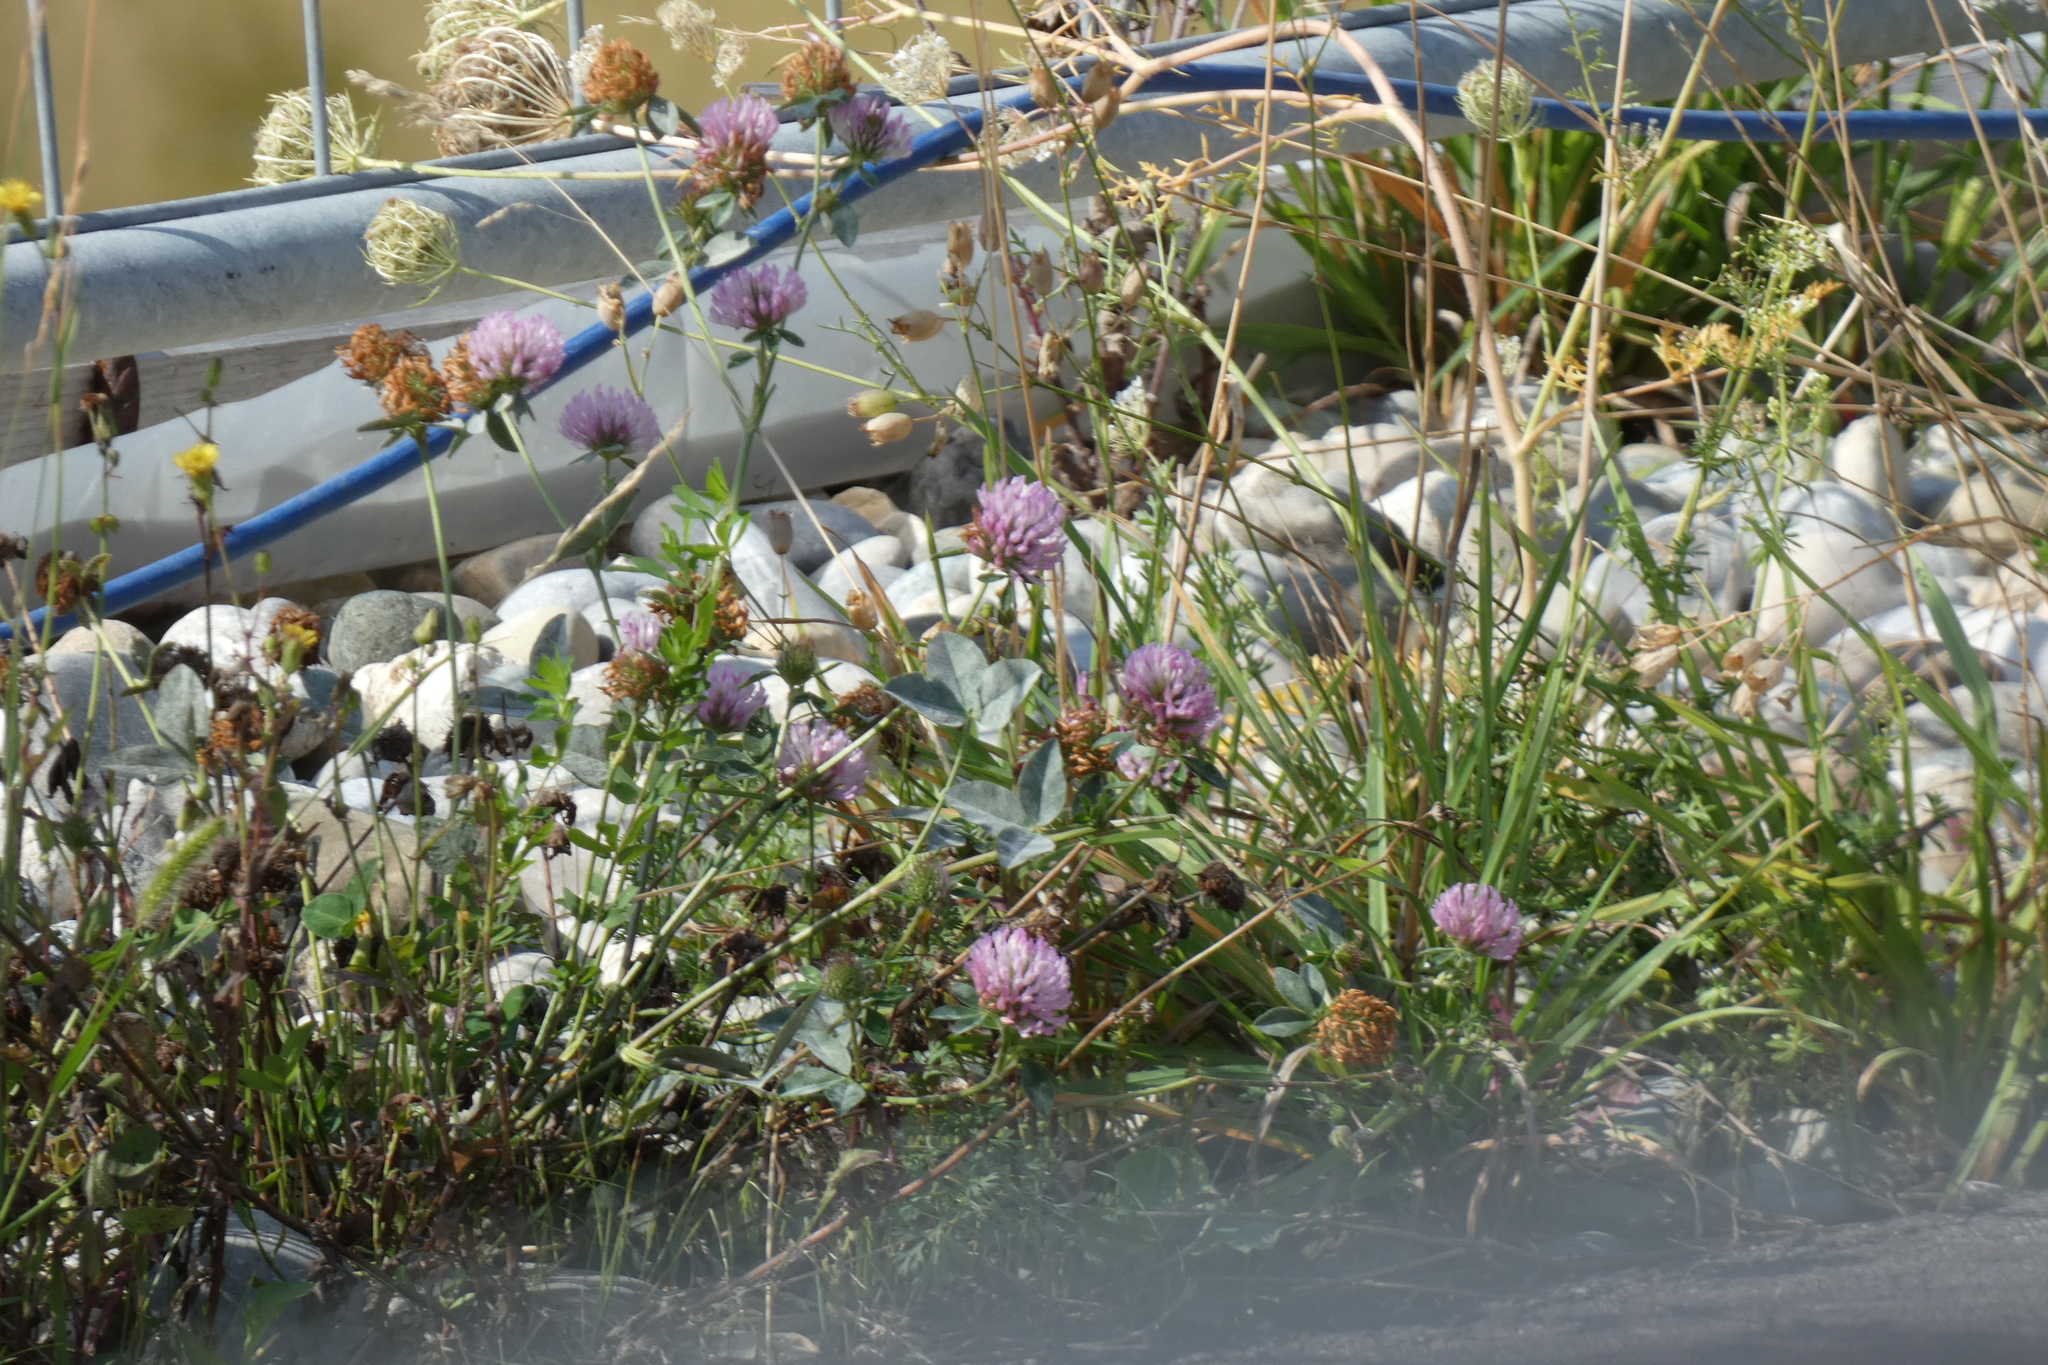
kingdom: Plantae
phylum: Tracheophyta
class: Magnoliopsida
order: Fabales
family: Fabaceae
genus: Trifolium
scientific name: Trifolium pratense
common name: Red clover
